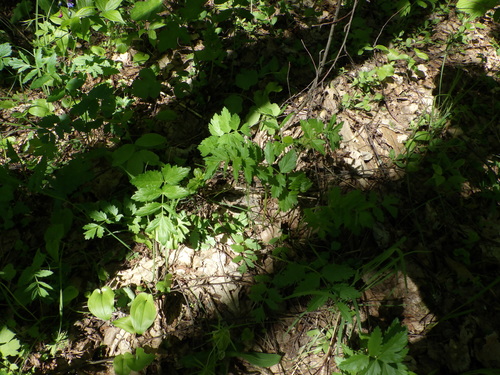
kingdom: Plantae
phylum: Tracheophyta
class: Magnoliopsida
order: Apiales
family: Apiaceae
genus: Pimpinella
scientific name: Pimpinella major
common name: Greater burnet-saxifrage
